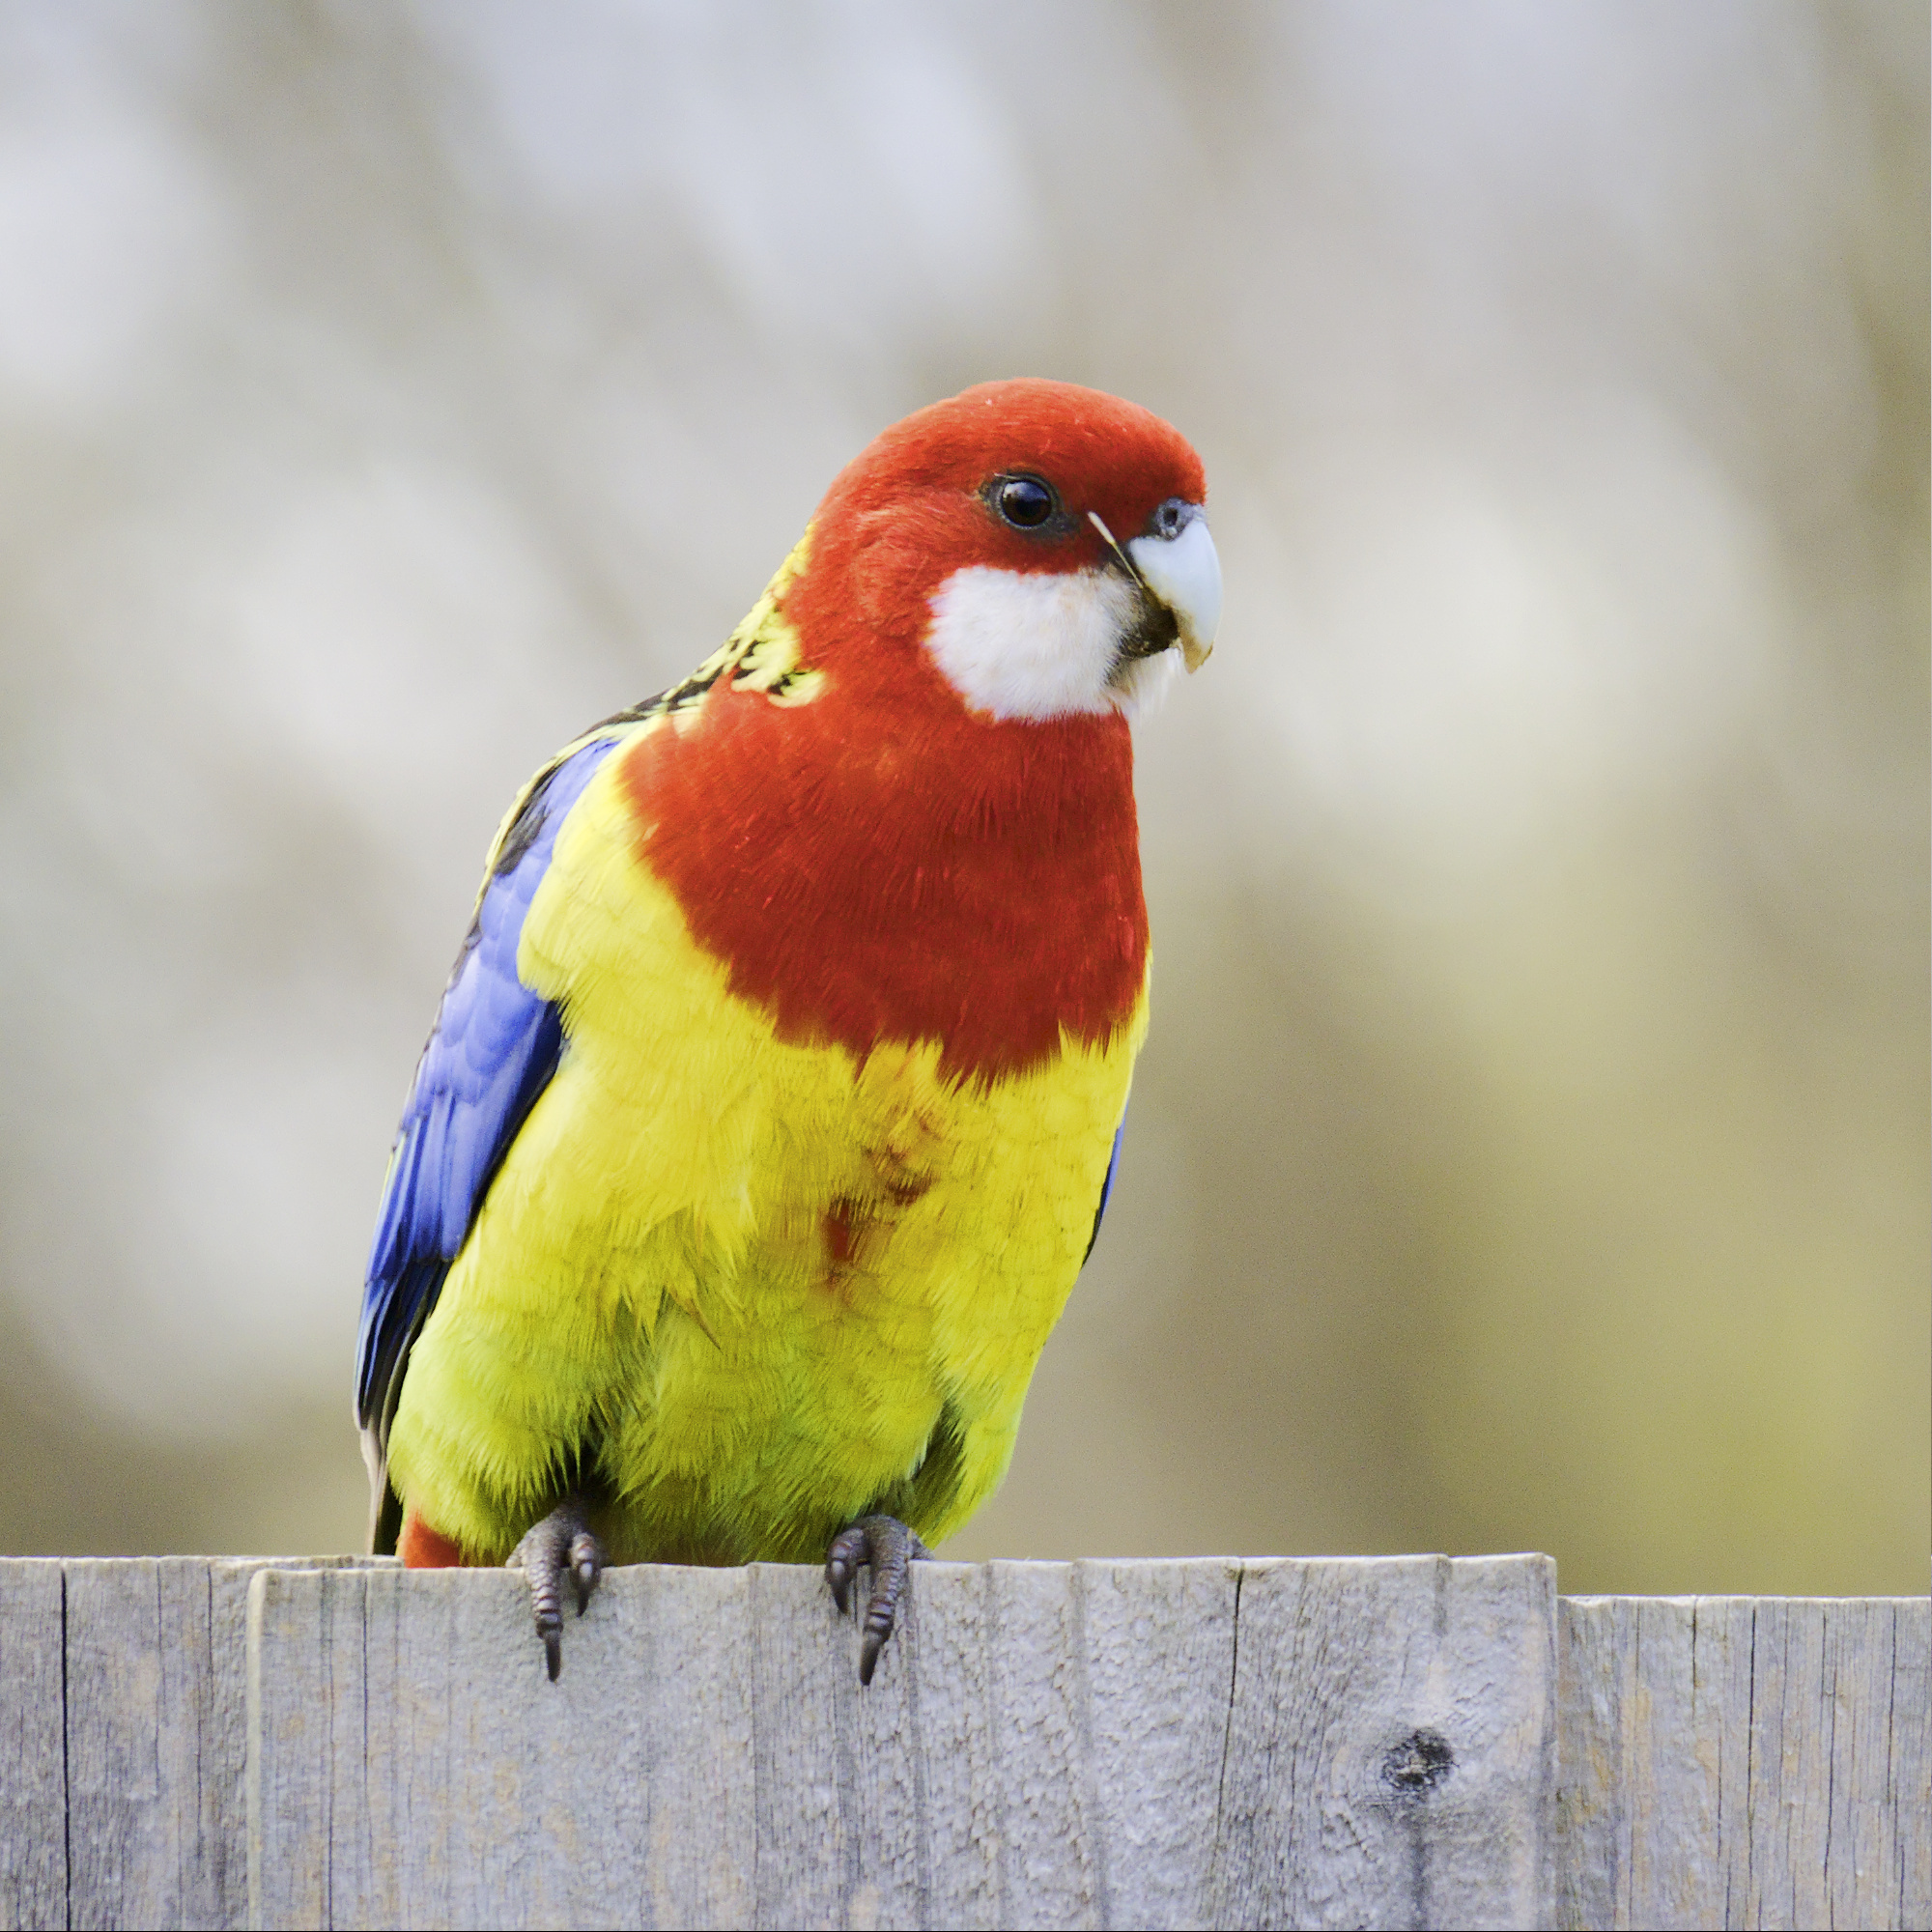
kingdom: Animalia
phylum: Chordata
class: Aves
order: Psittaciformes
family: Psittacidae
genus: Platycercus
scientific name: Platycercus eximius
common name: Eastern rosella
